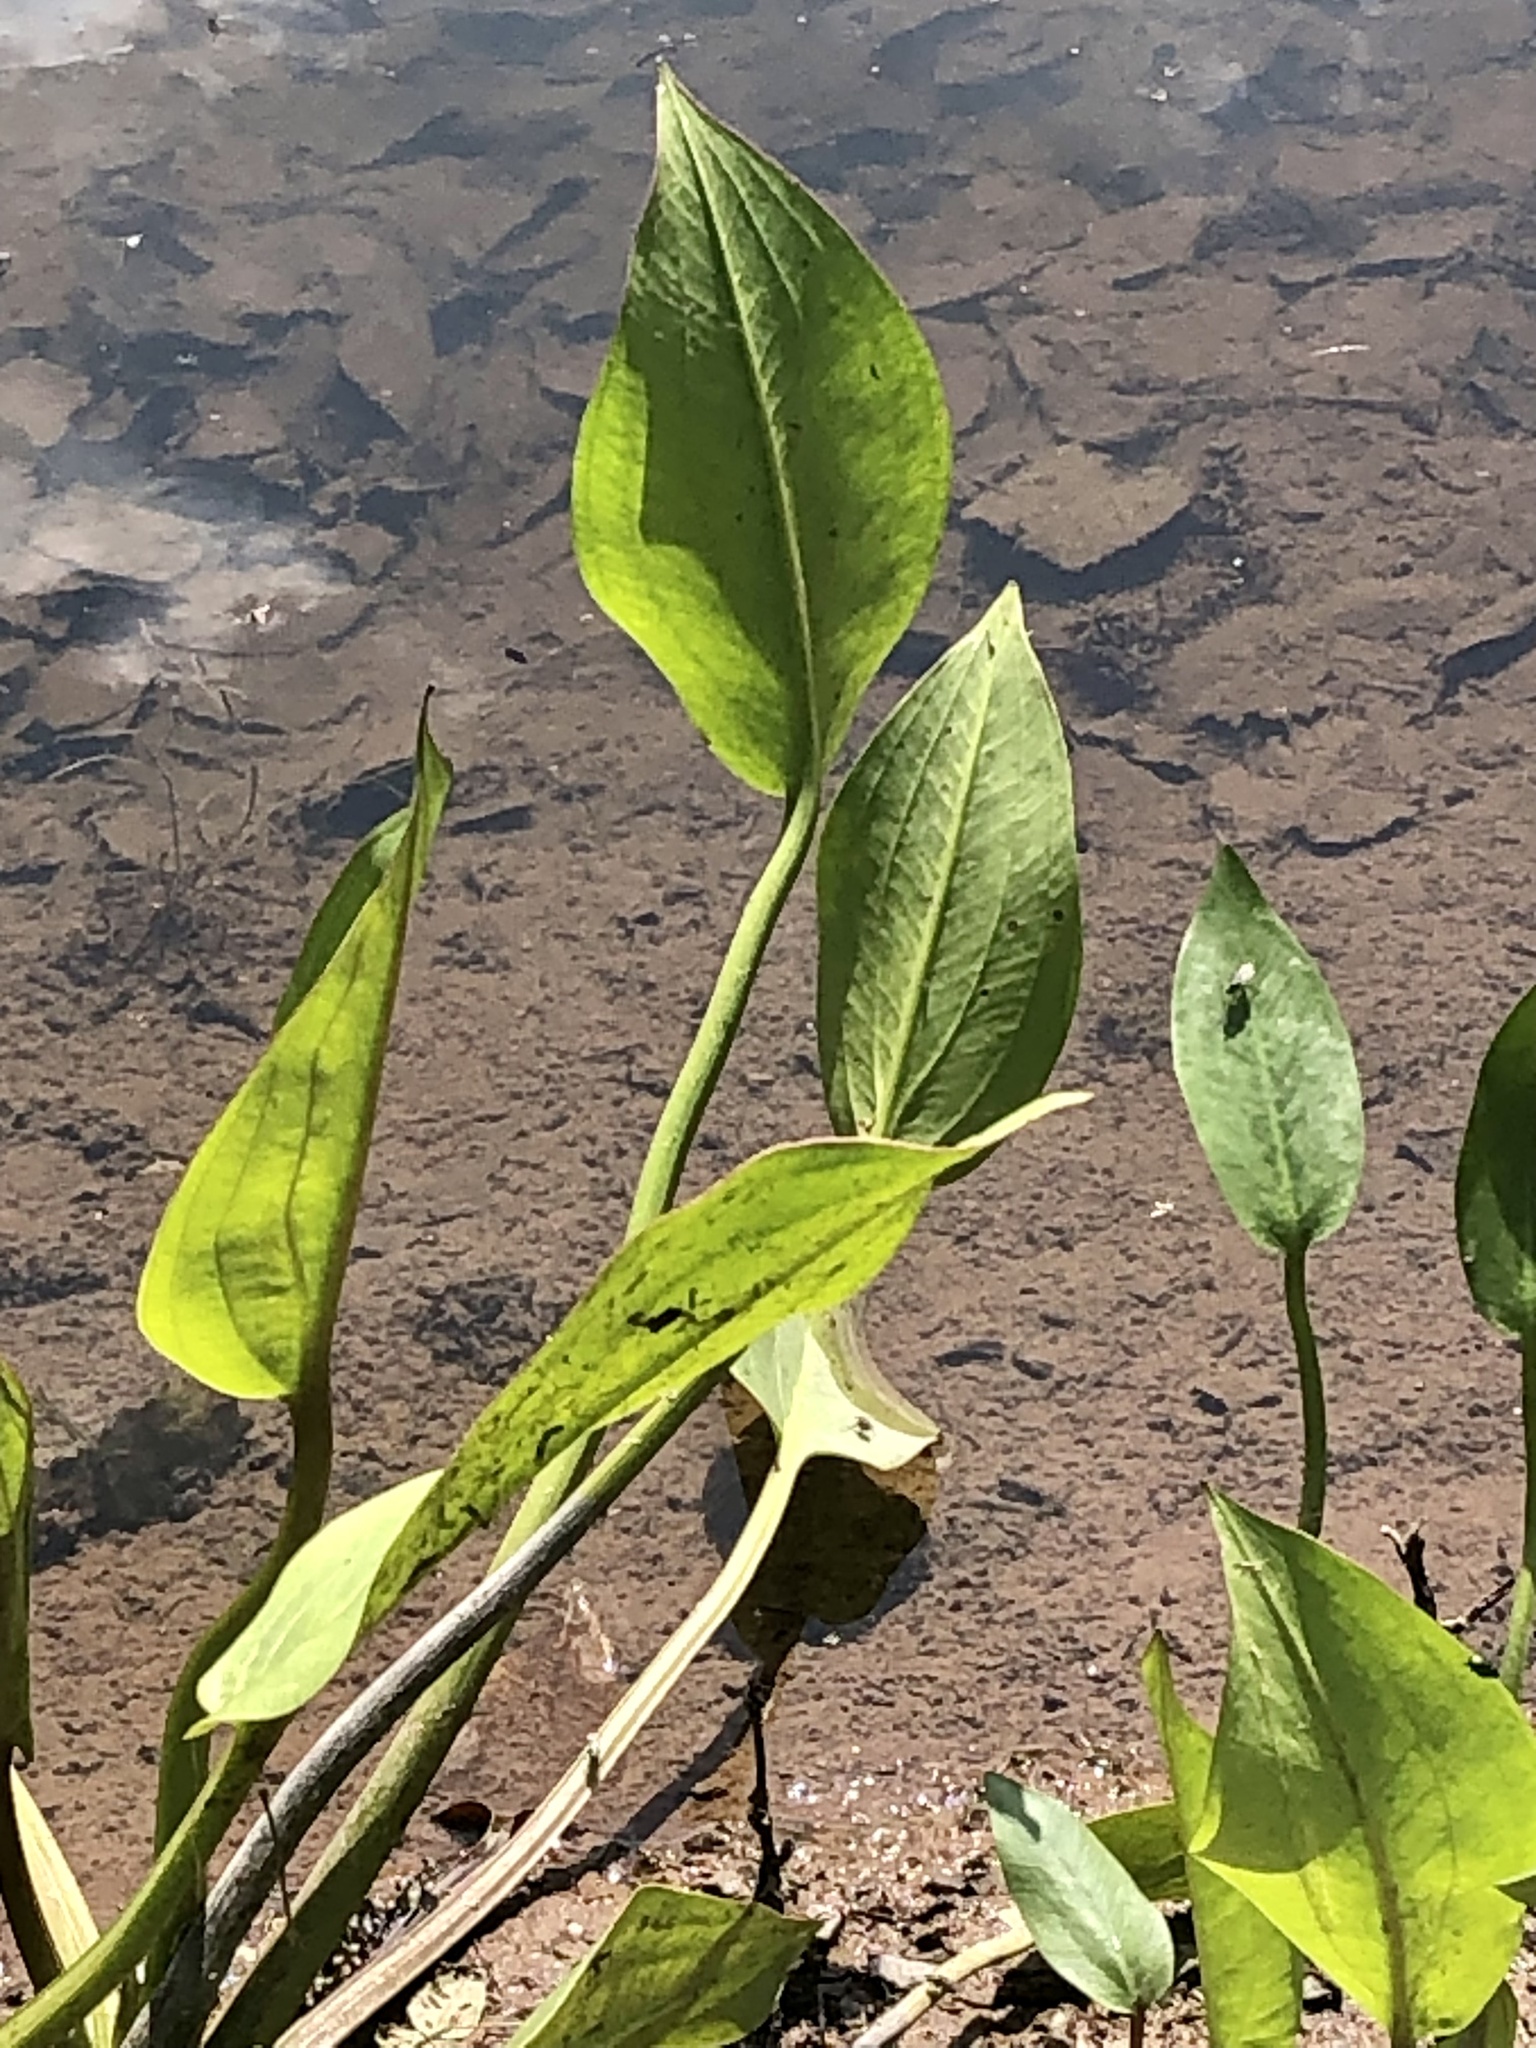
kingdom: Plantae
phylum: Tracheophyta
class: Liliopsida
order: Alismatales
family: Alismataceae
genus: Alisma
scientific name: Alisma plantago-aquatica
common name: Water-plantain
